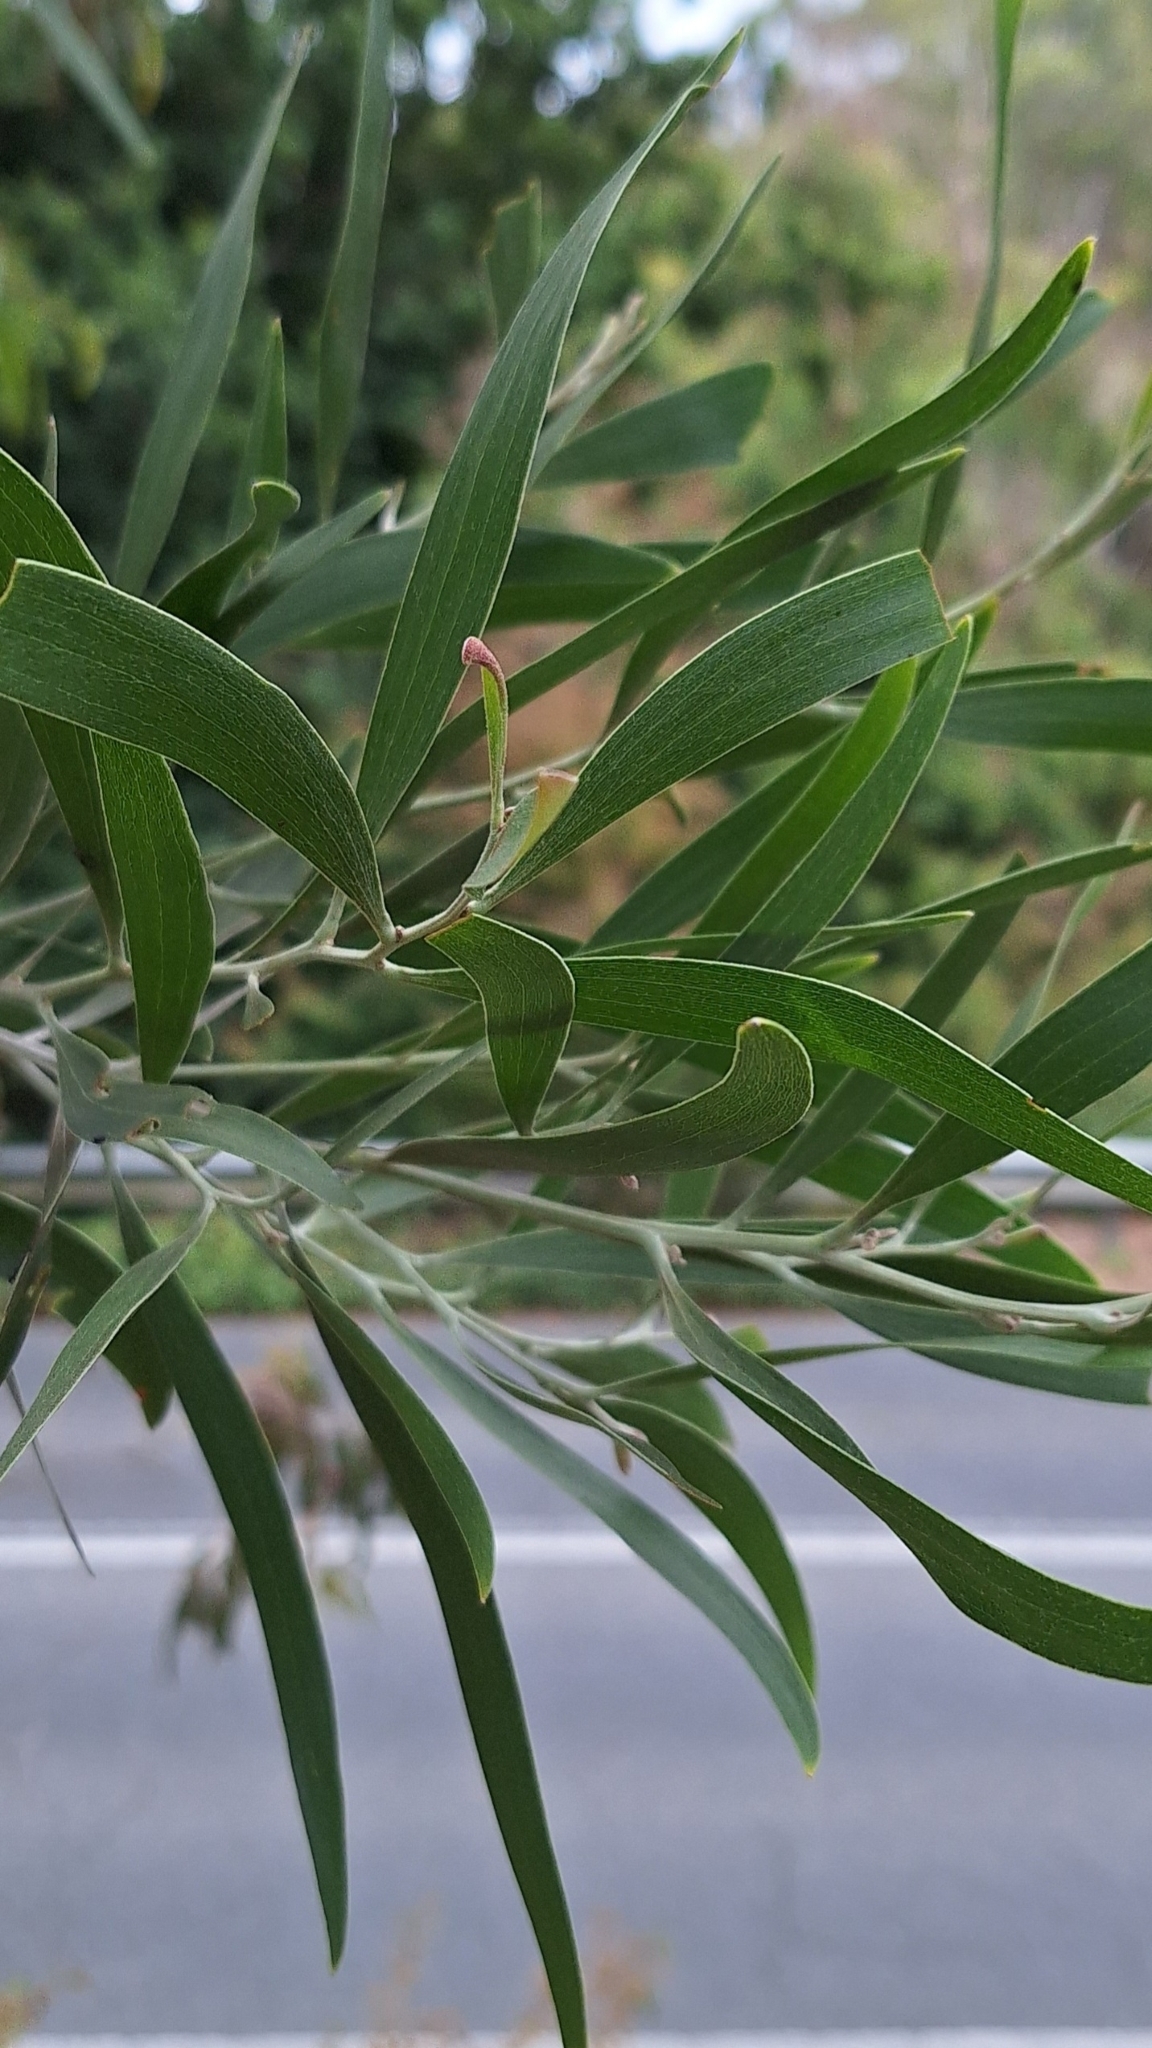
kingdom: Plantae
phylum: Tracheophyta
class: Magnoliopsida
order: Fabales
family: Fabaceae
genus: Acacia
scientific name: Acacia melanoxylon
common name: Blackwood
